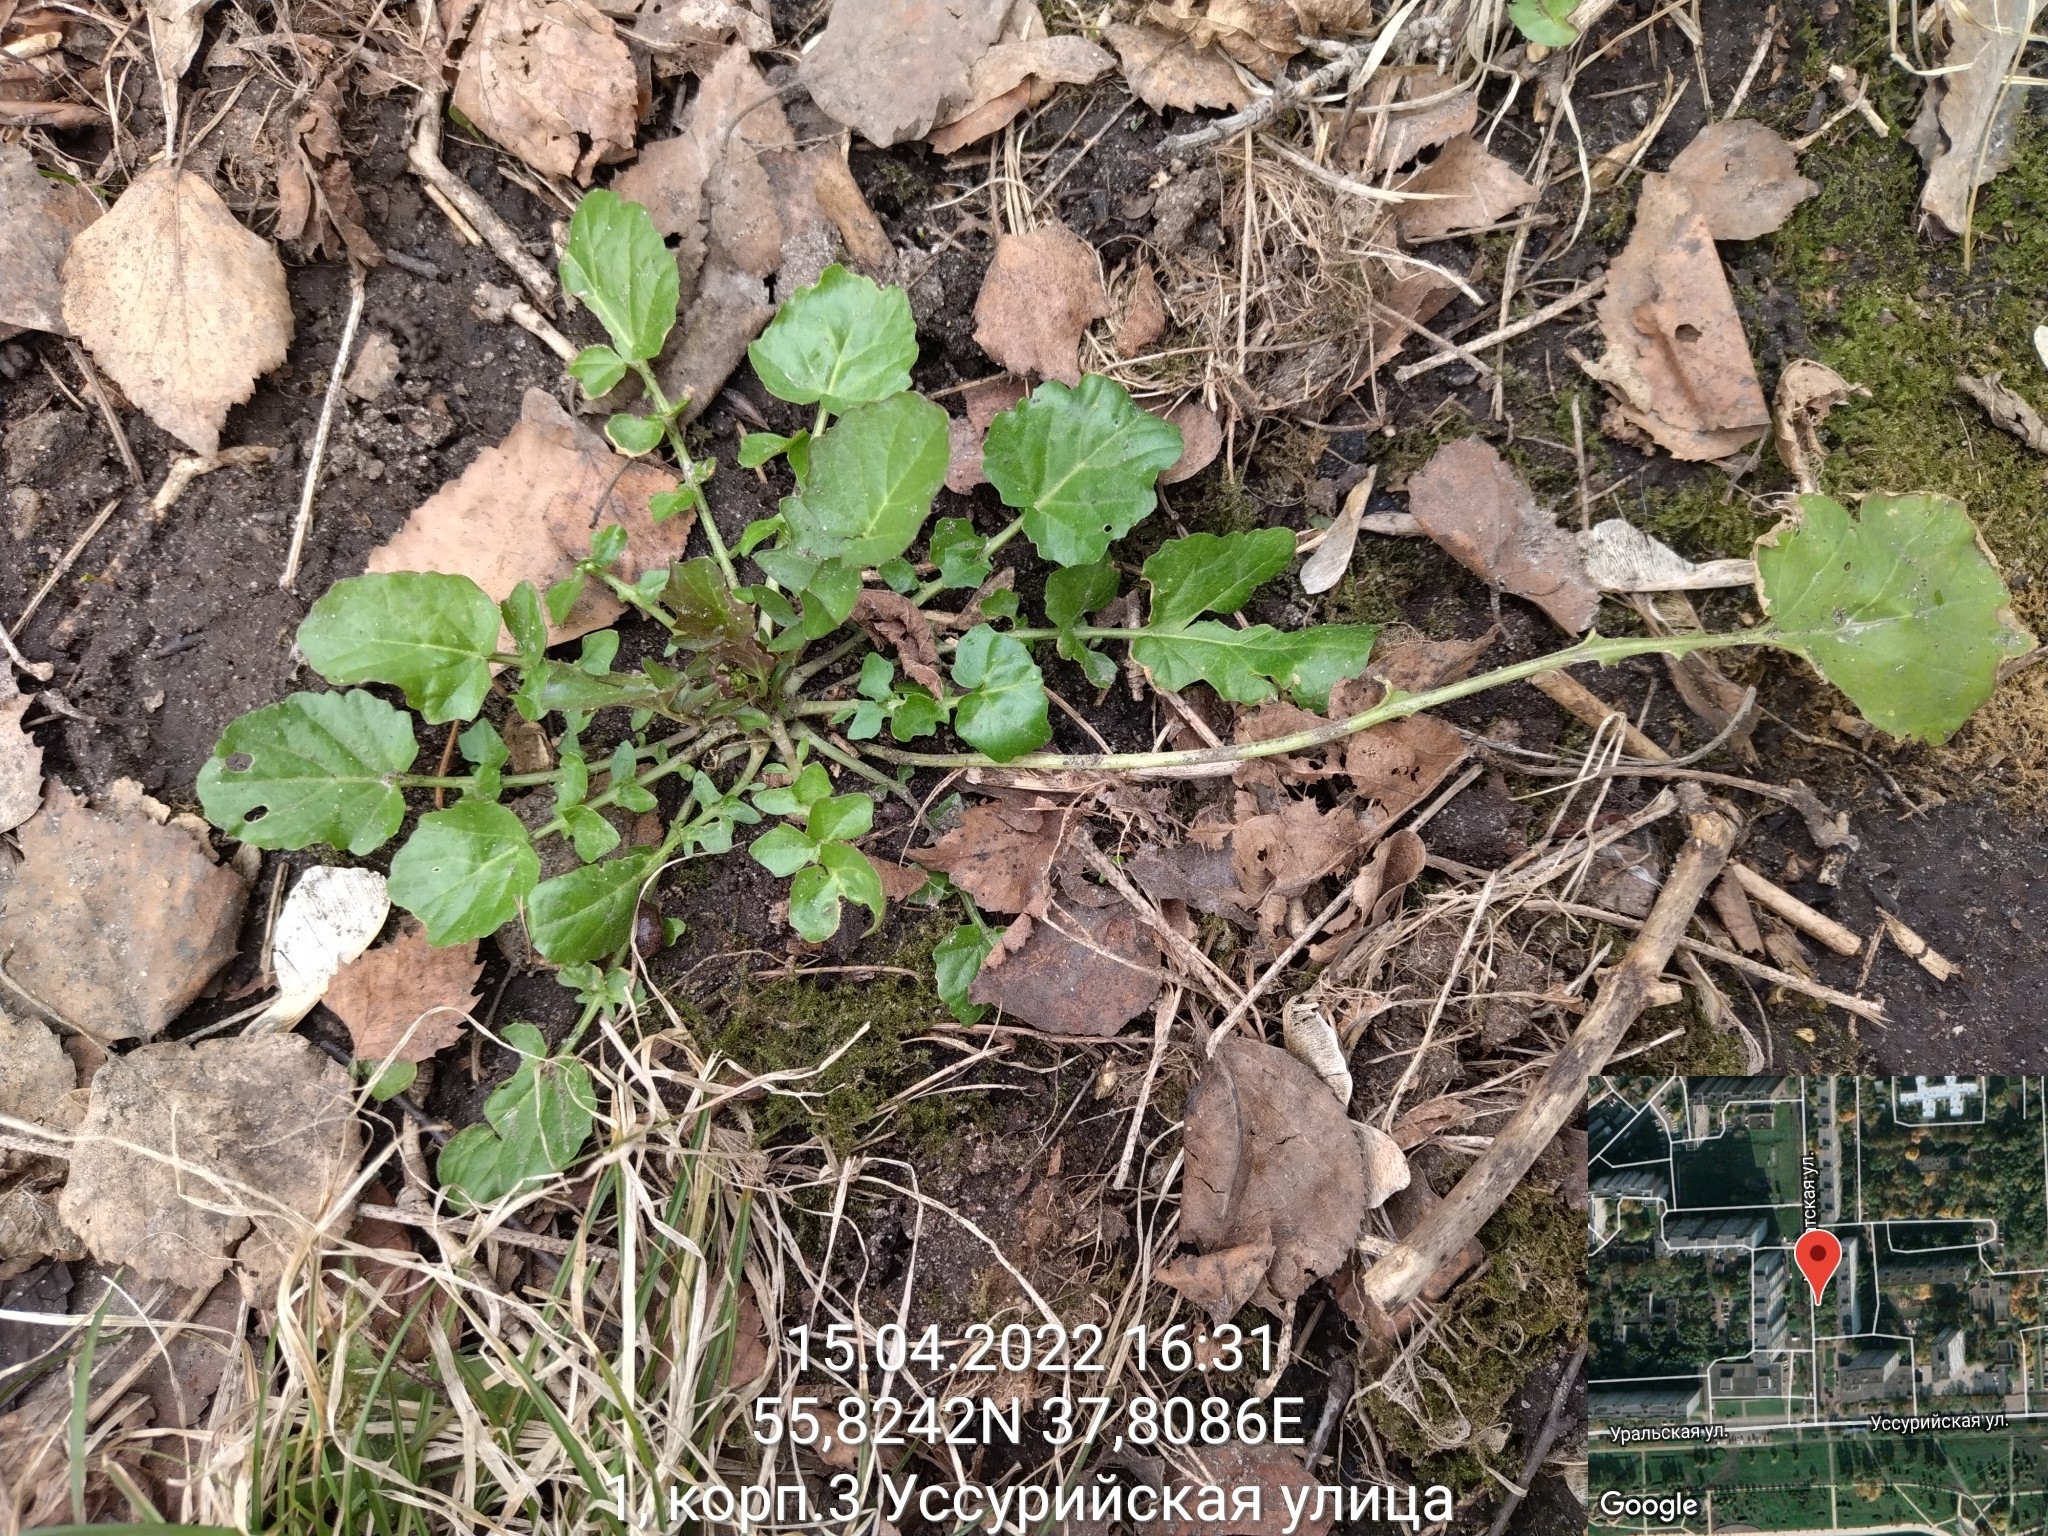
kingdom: Plantae
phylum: Tracheophyta
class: Magnoliopsida
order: Brassicales
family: Brassicaceae
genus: Barbarea
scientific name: Barbarea vulgaris
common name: Cressy-greens
